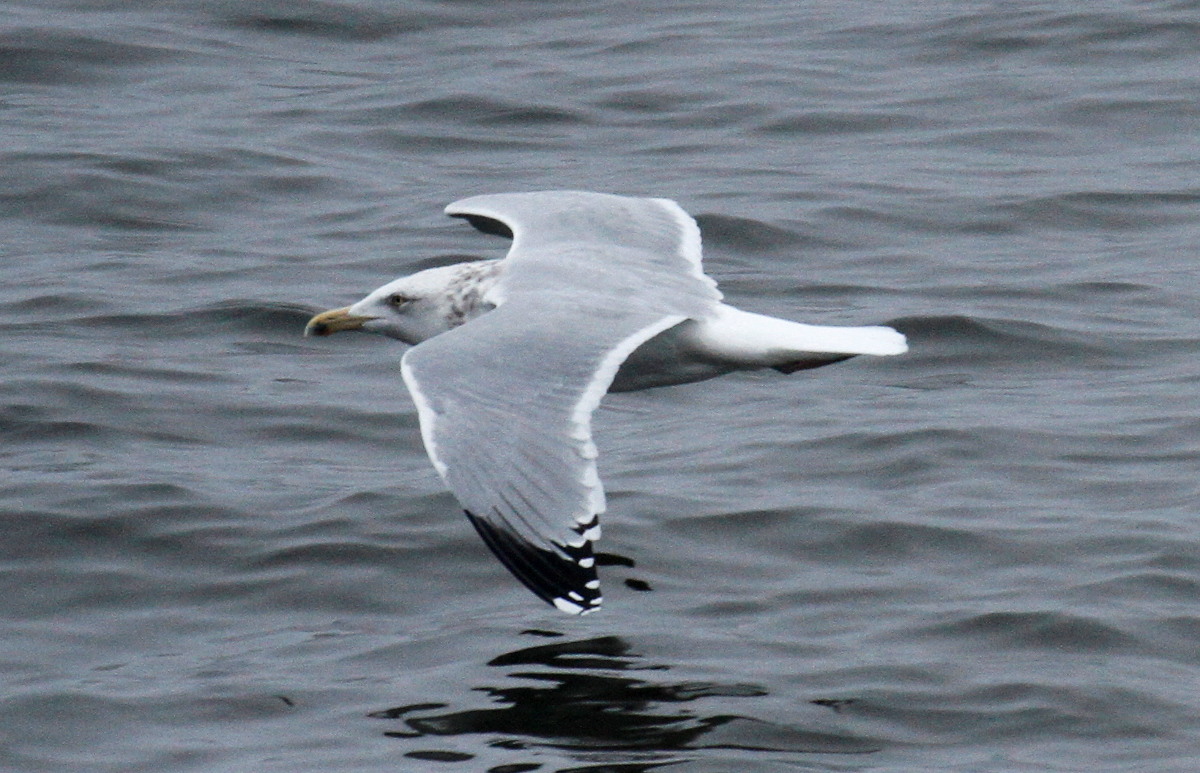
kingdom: Animalia
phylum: Chordata
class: Aves
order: Charadriiformes
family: Laridae
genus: Larus
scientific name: Larus argentatus
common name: Herring gull
